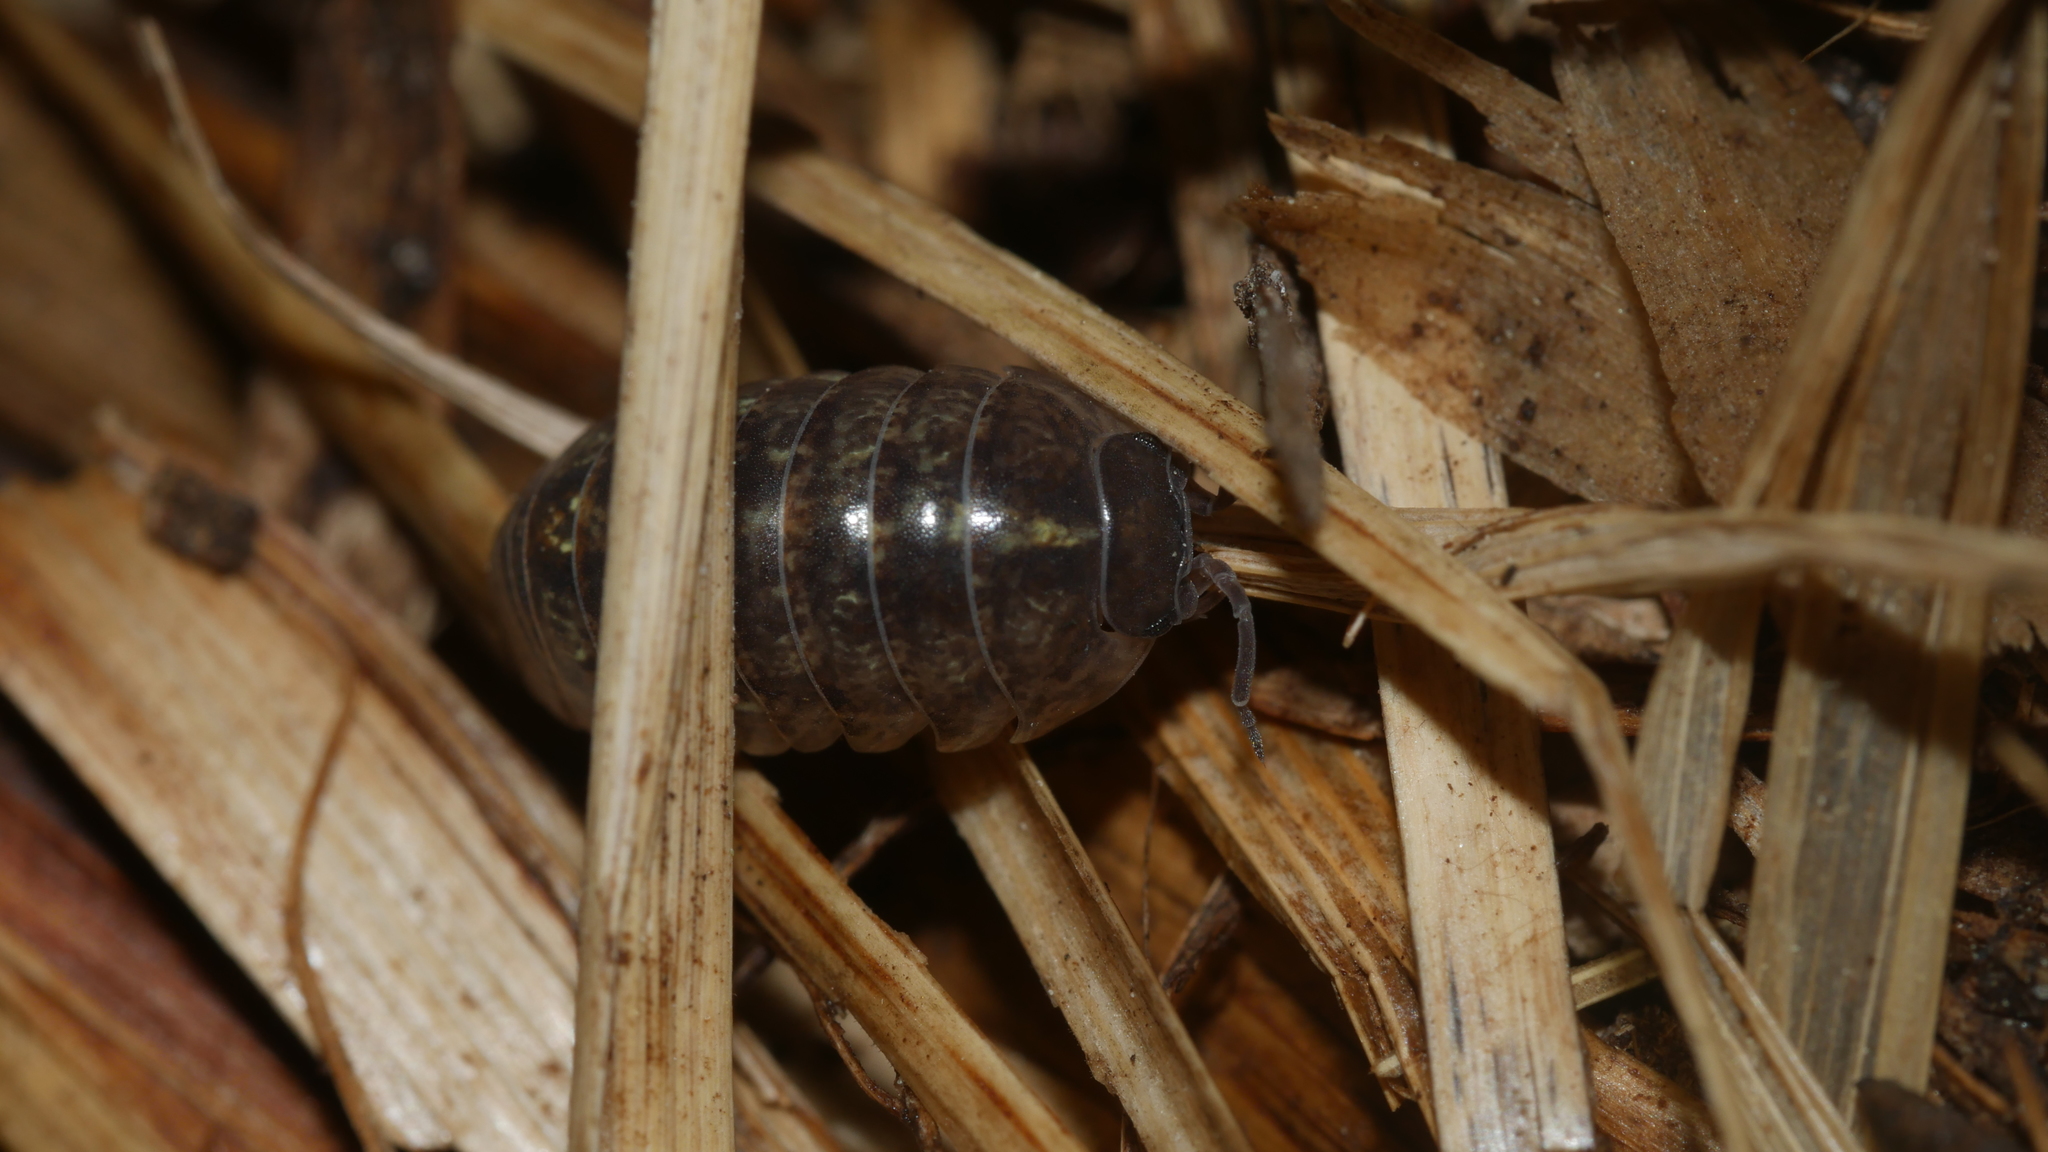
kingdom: Animalia
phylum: Arthropoda
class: Malacostraca
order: Isopoda
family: Armadillidiidae
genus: Armadillidium
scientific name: Armadillidium vulgare
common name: Common pill woodlouse
